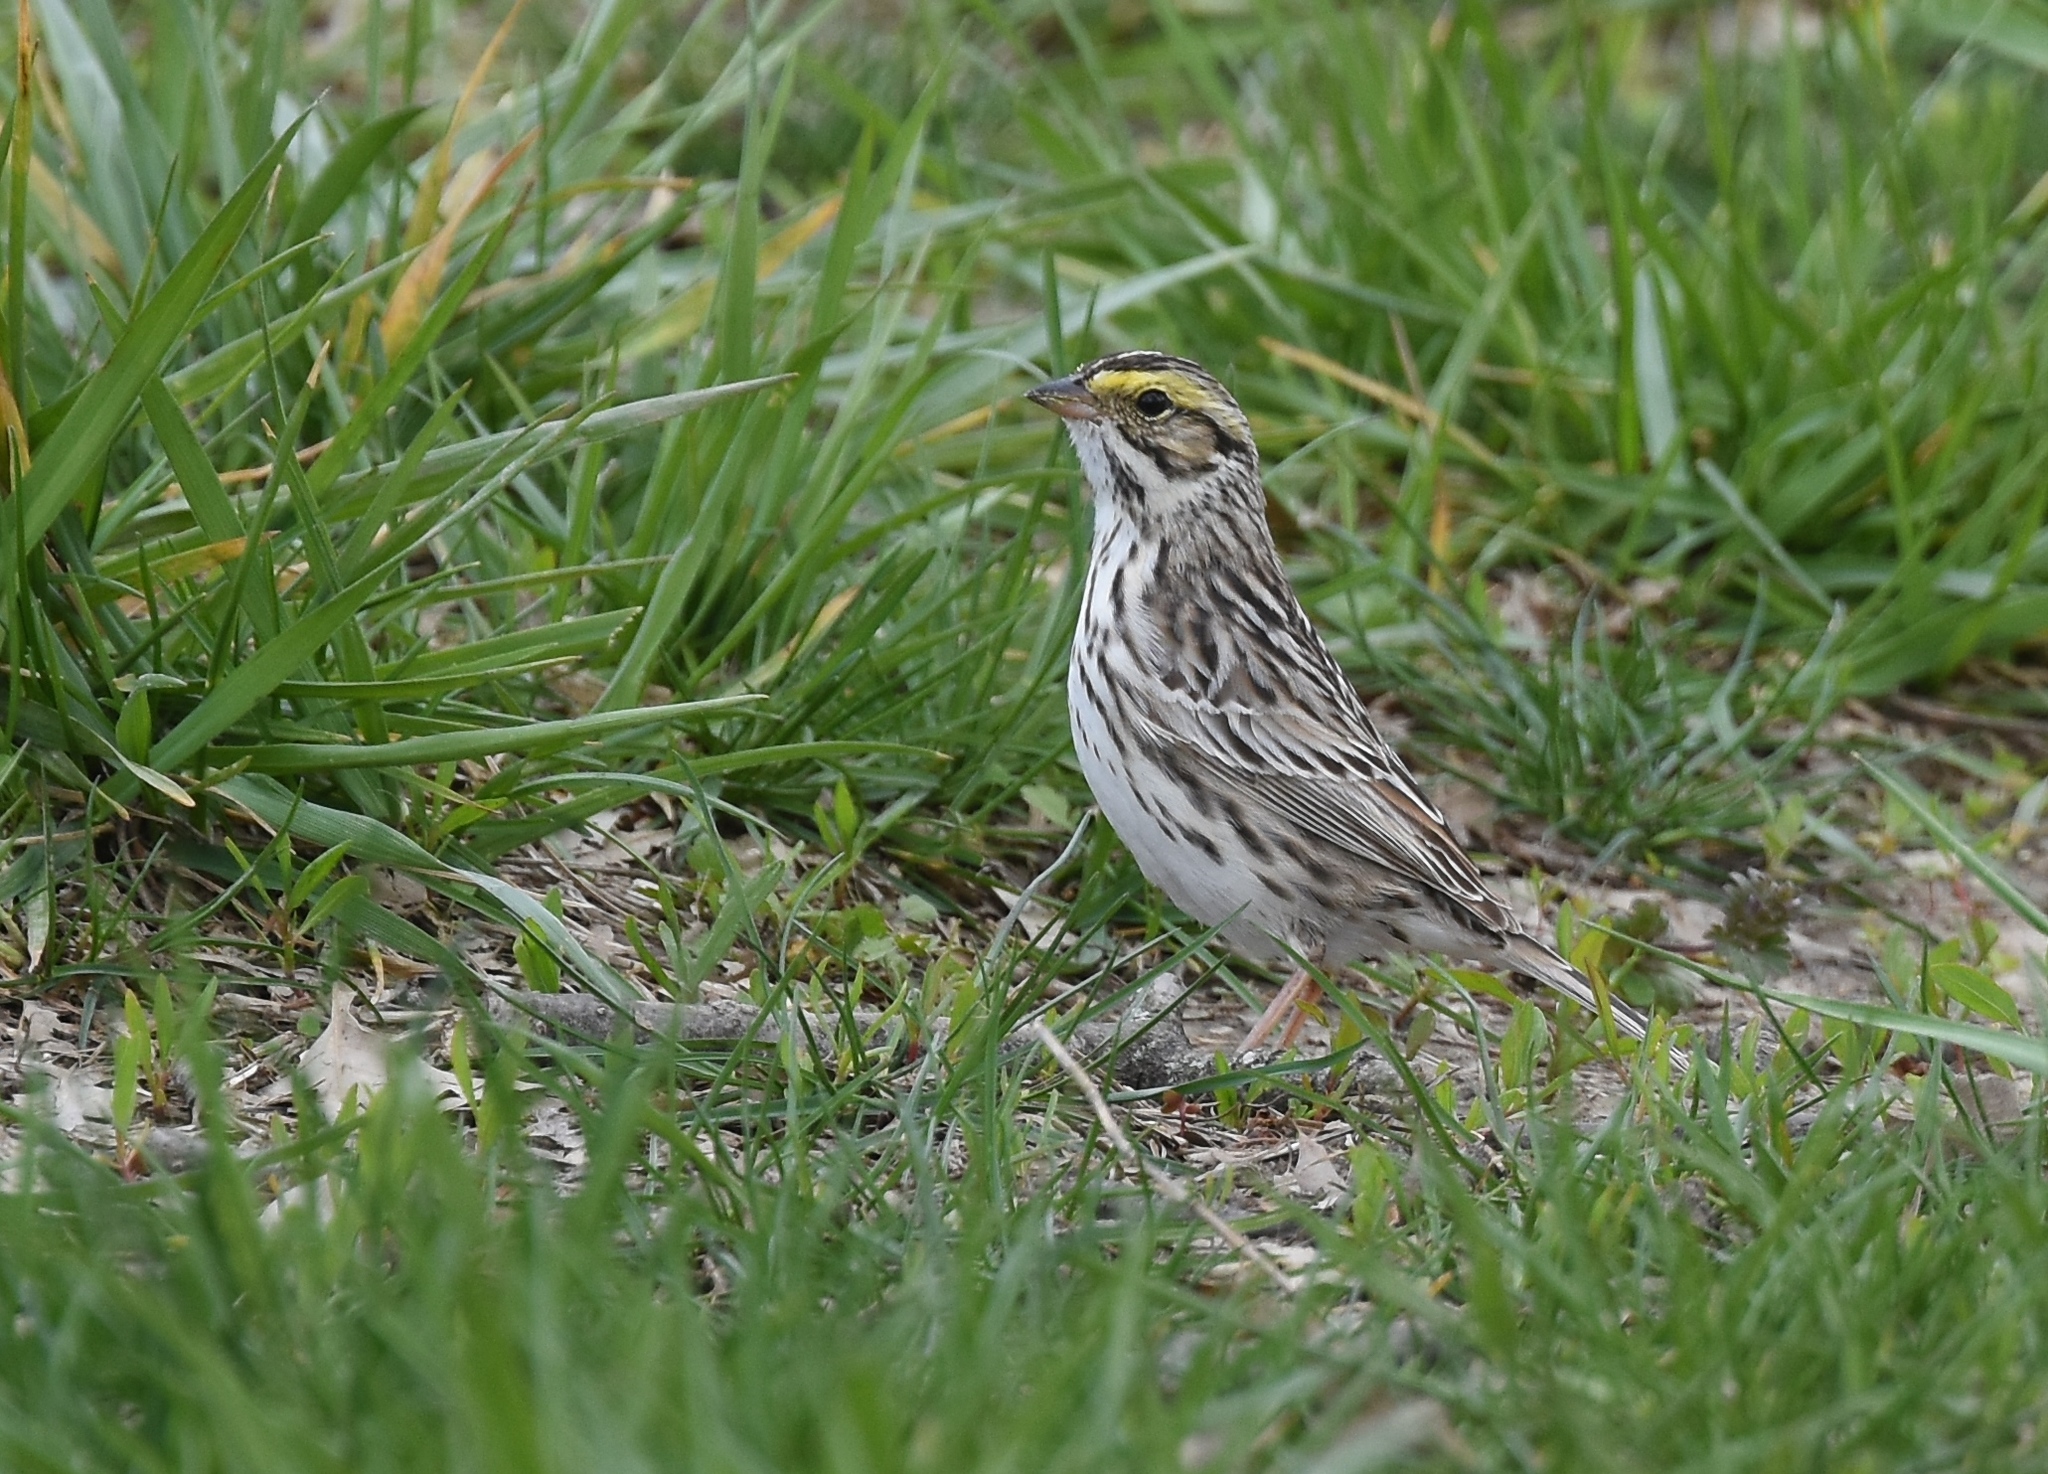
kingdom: Animalia
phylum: Chordata
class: Aves
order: Passeriformes
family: Passerellidae
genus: Passerculus
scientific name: Passerculus sandwichensis
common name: Savannah sparrow
